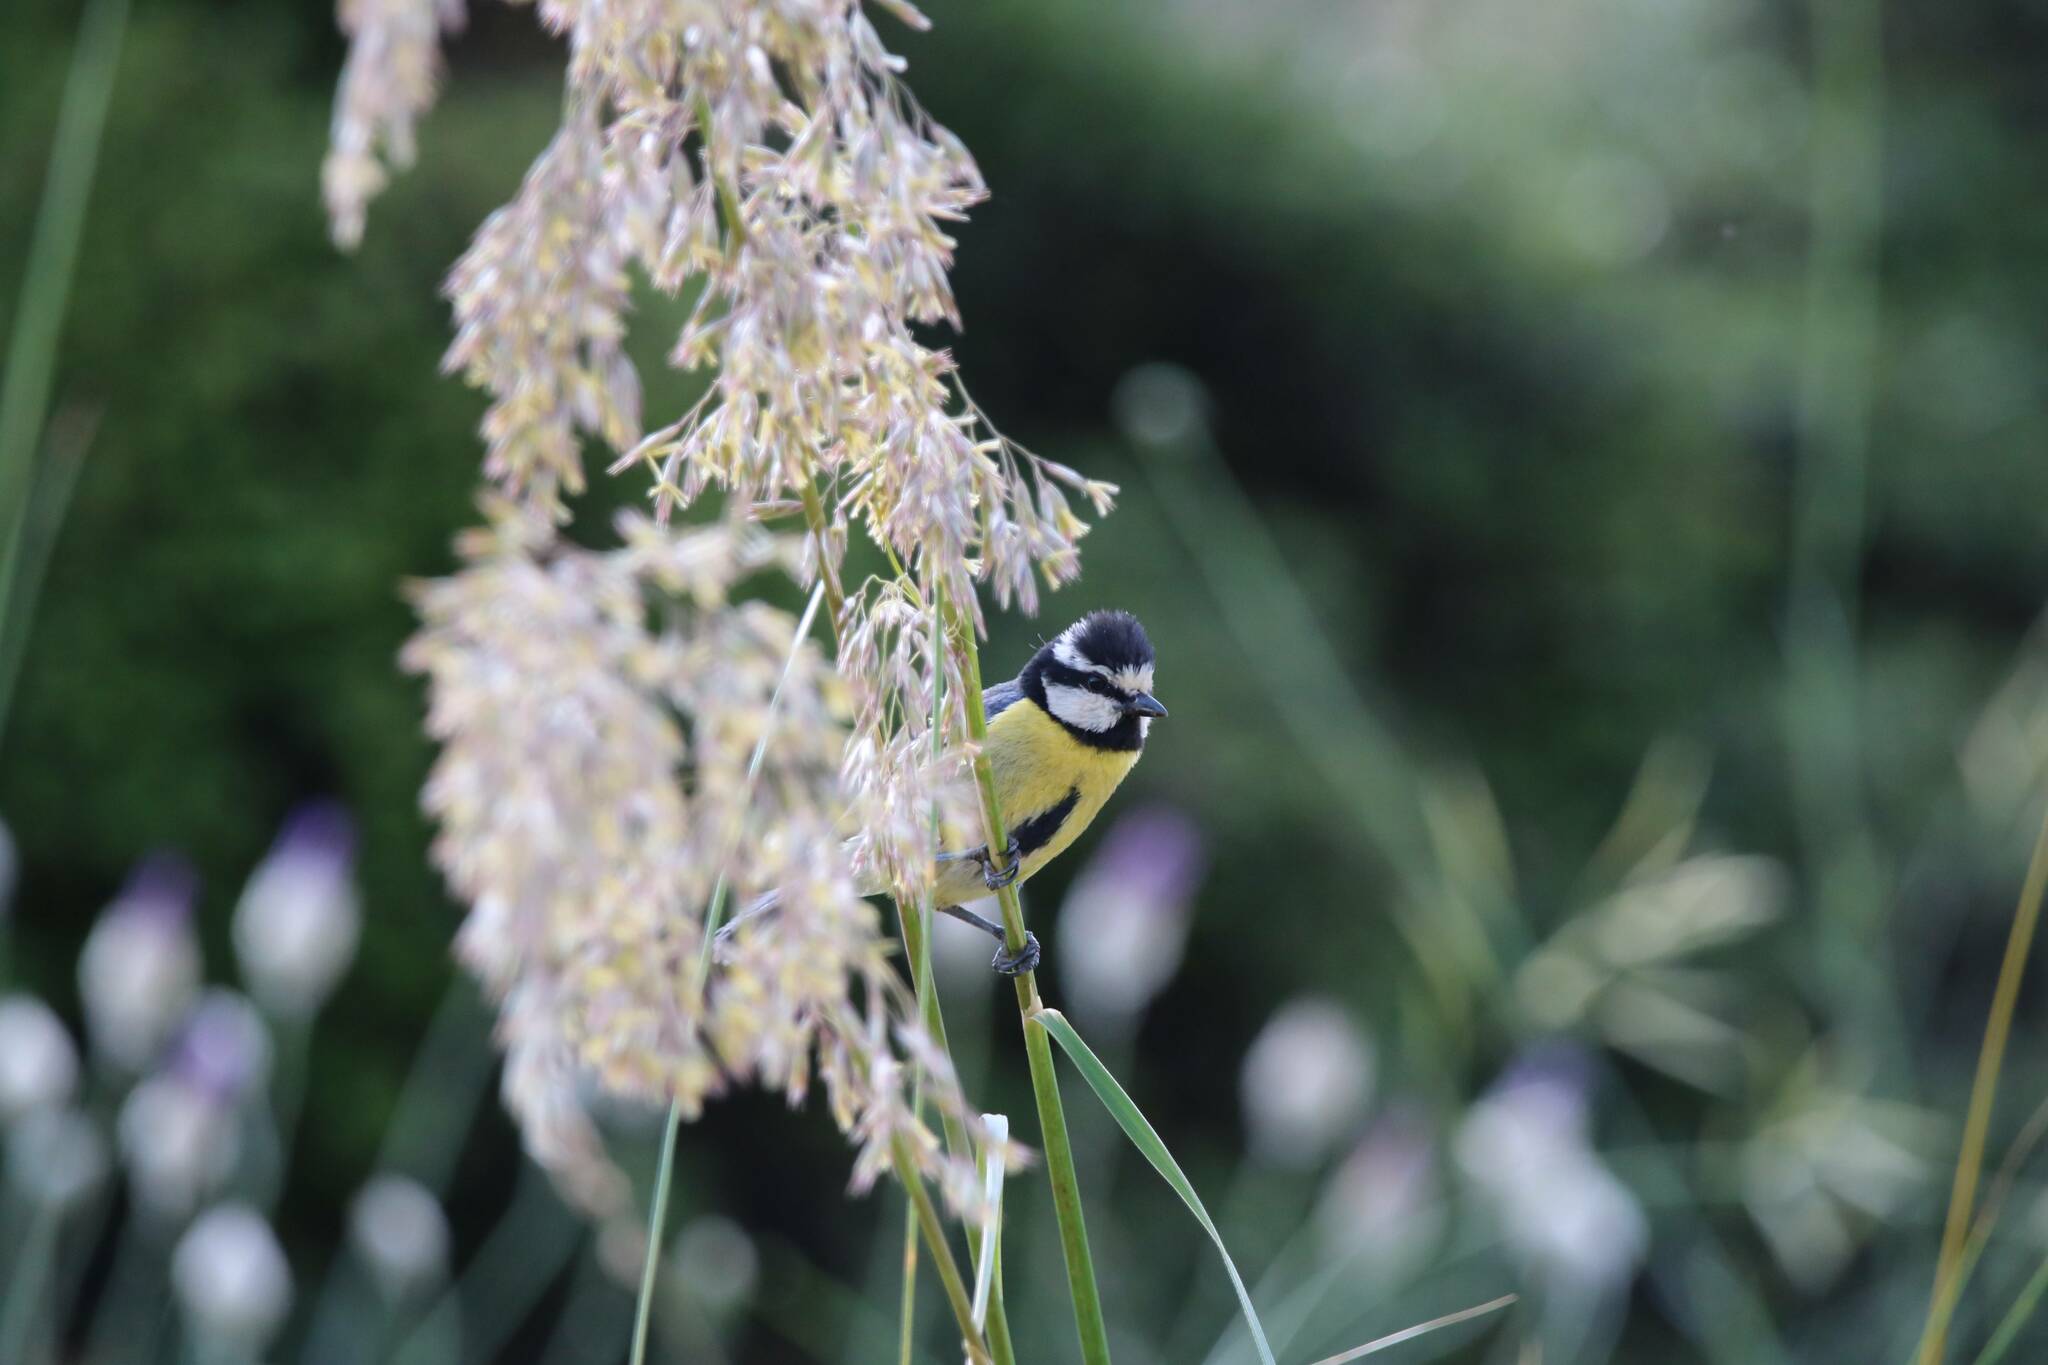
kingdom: Animalia
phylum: Chordata
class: Aves
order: Passeriformes
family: Paridae
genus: Cyanistes
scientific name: Cyanistes teneriffae
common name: African blue tit
